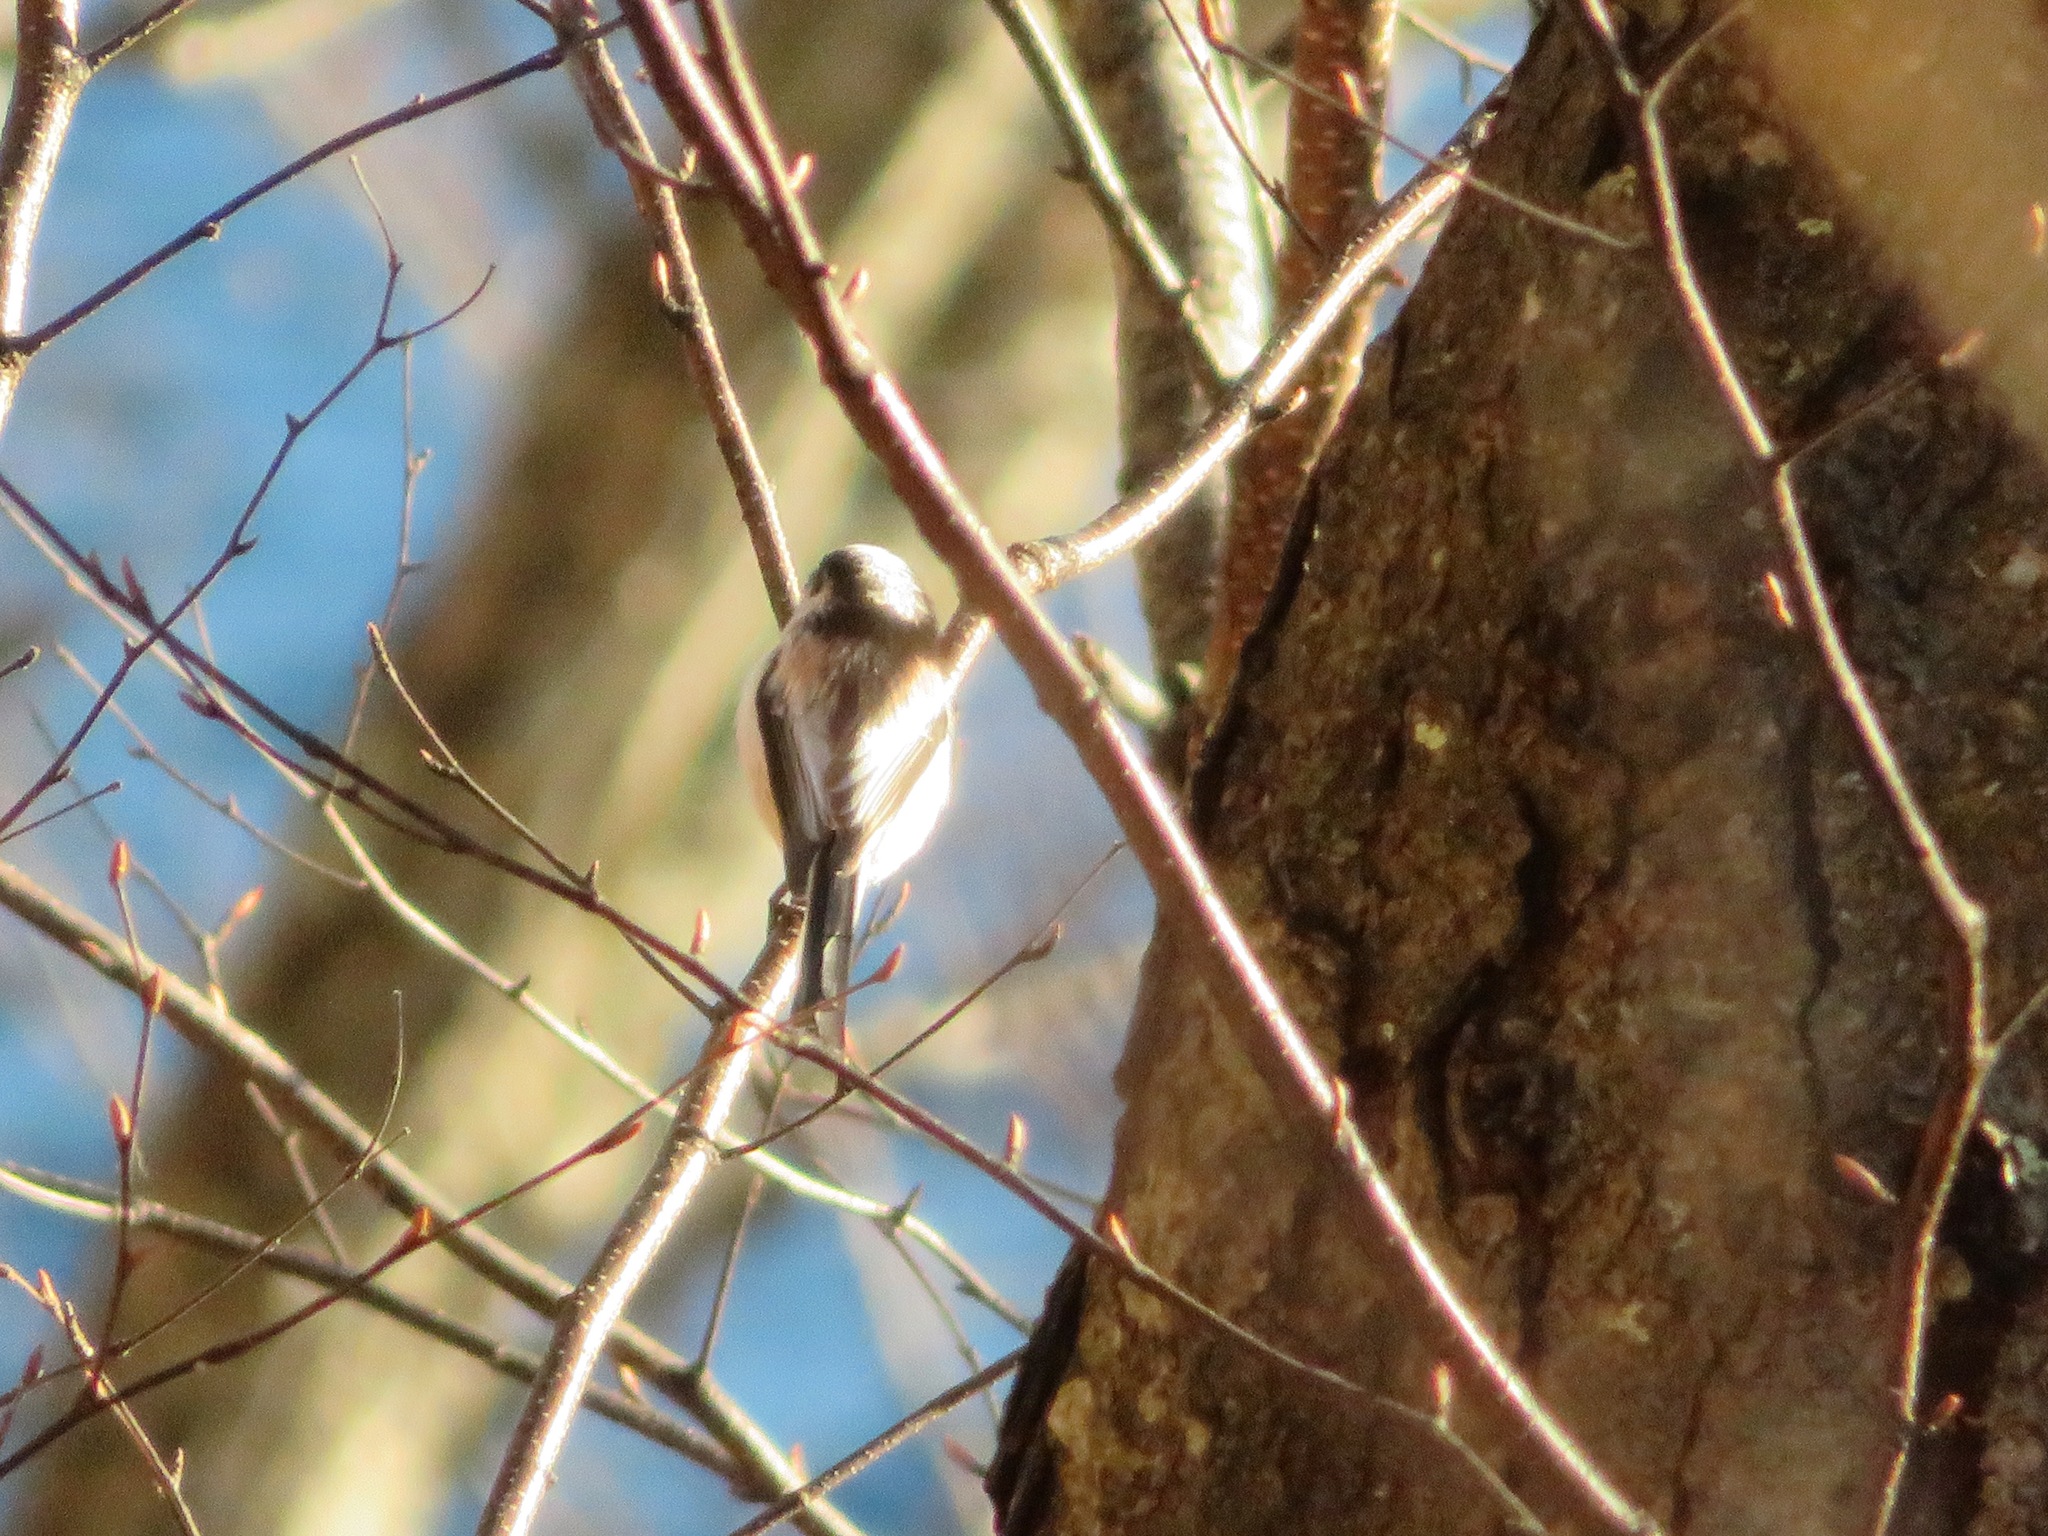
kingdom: Animalia
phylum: Chordata
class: Aves
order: Passeriformes
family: Aegithalidae
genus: Aegithalos
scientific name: Aegithalos caudatus
